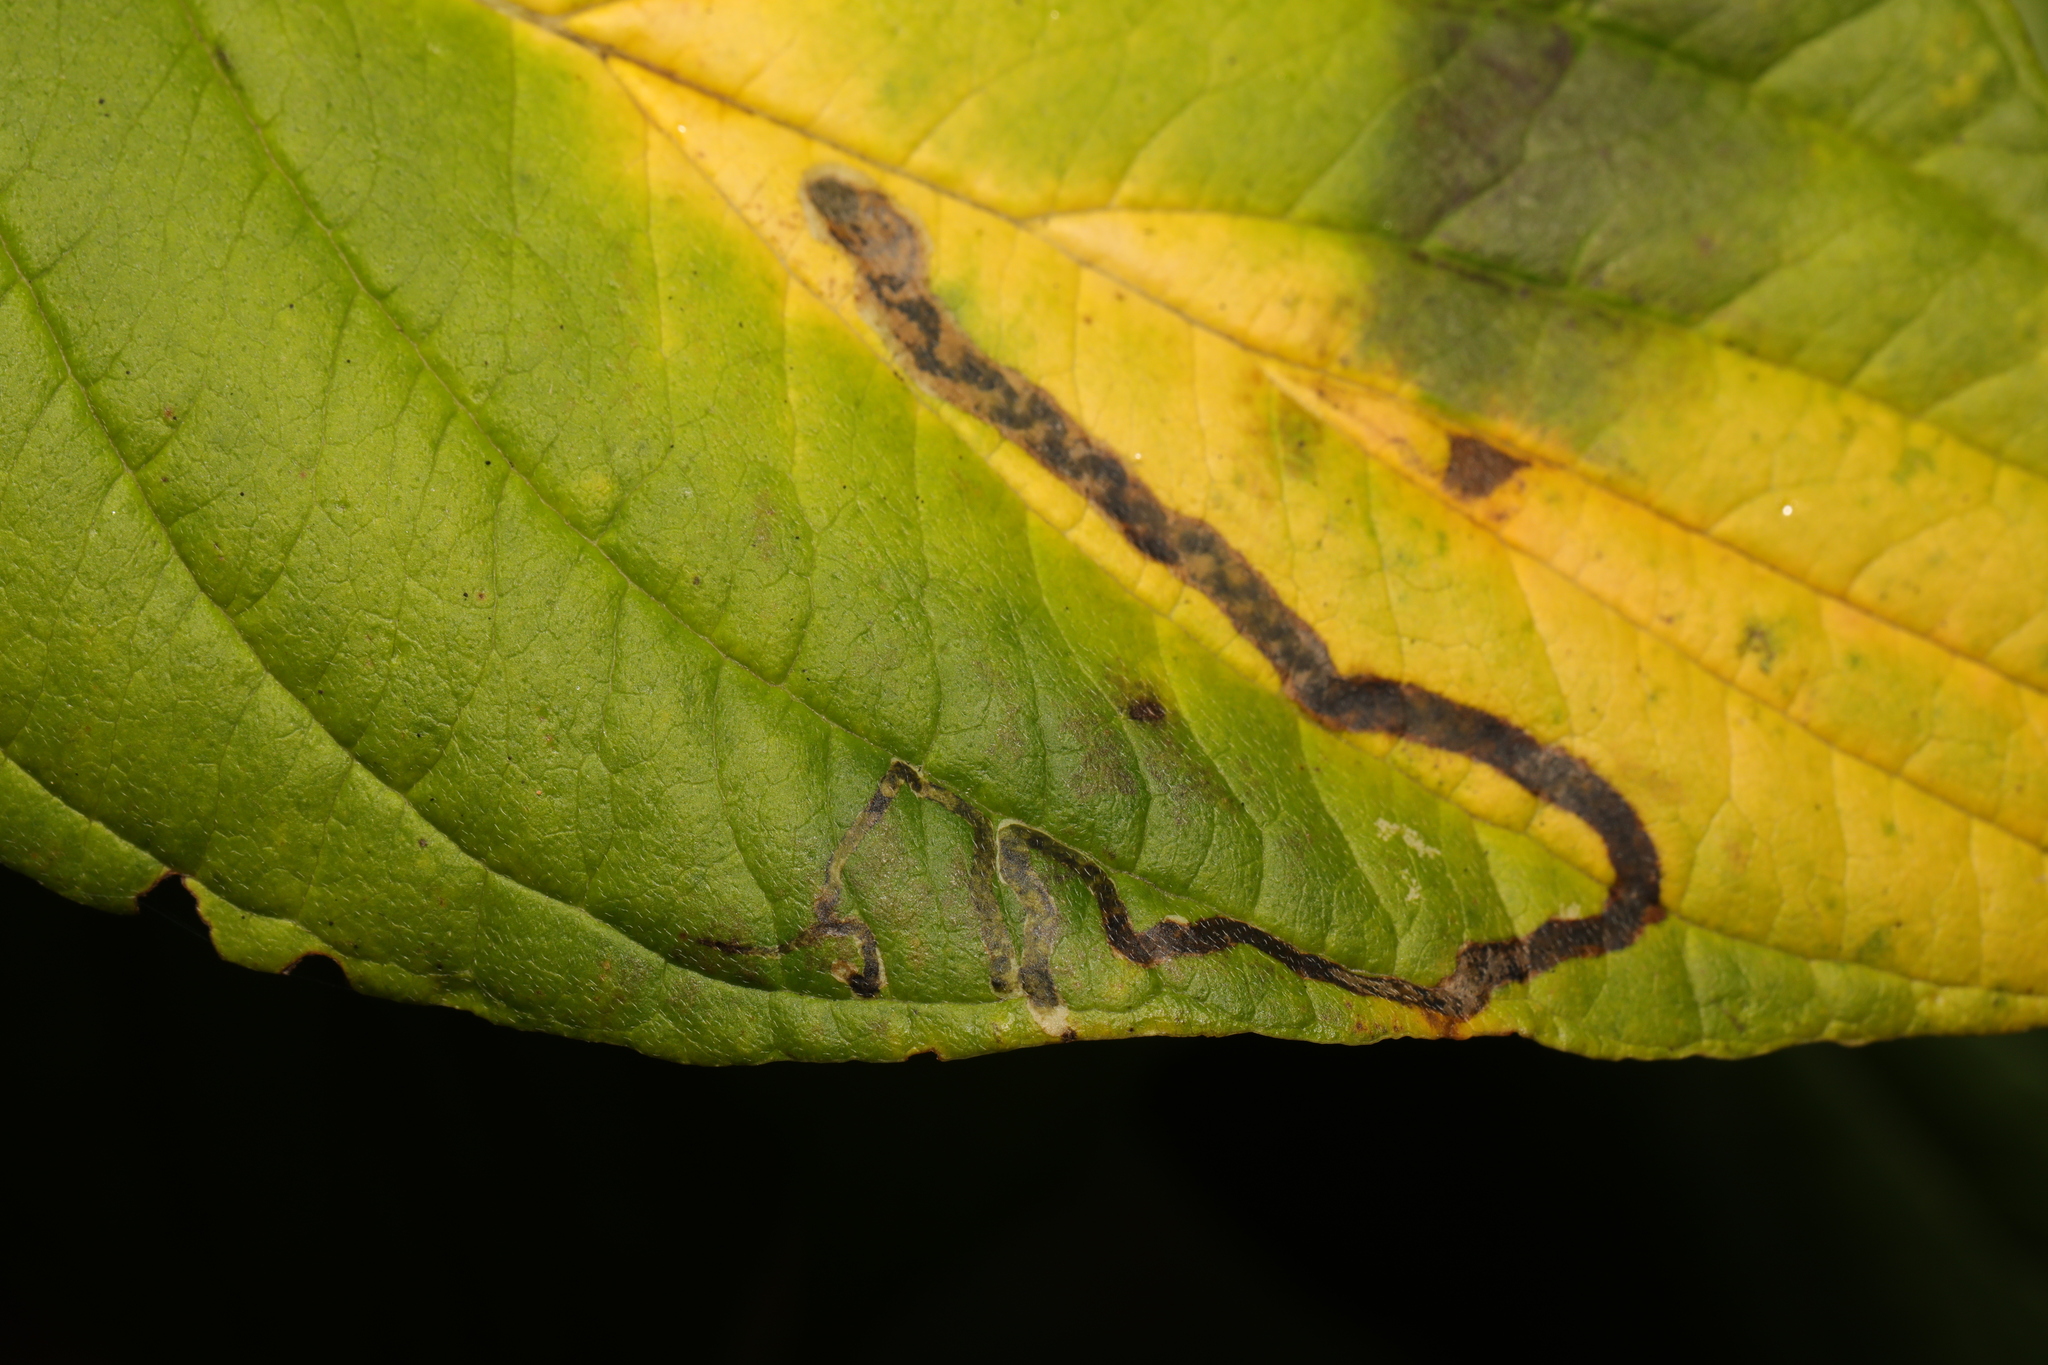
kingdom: Animalia
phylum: Arthropoda
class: Insecta
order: Diptera
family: Agromyzidae
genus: Phytomyza
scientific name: Phytomyza agromyzina
